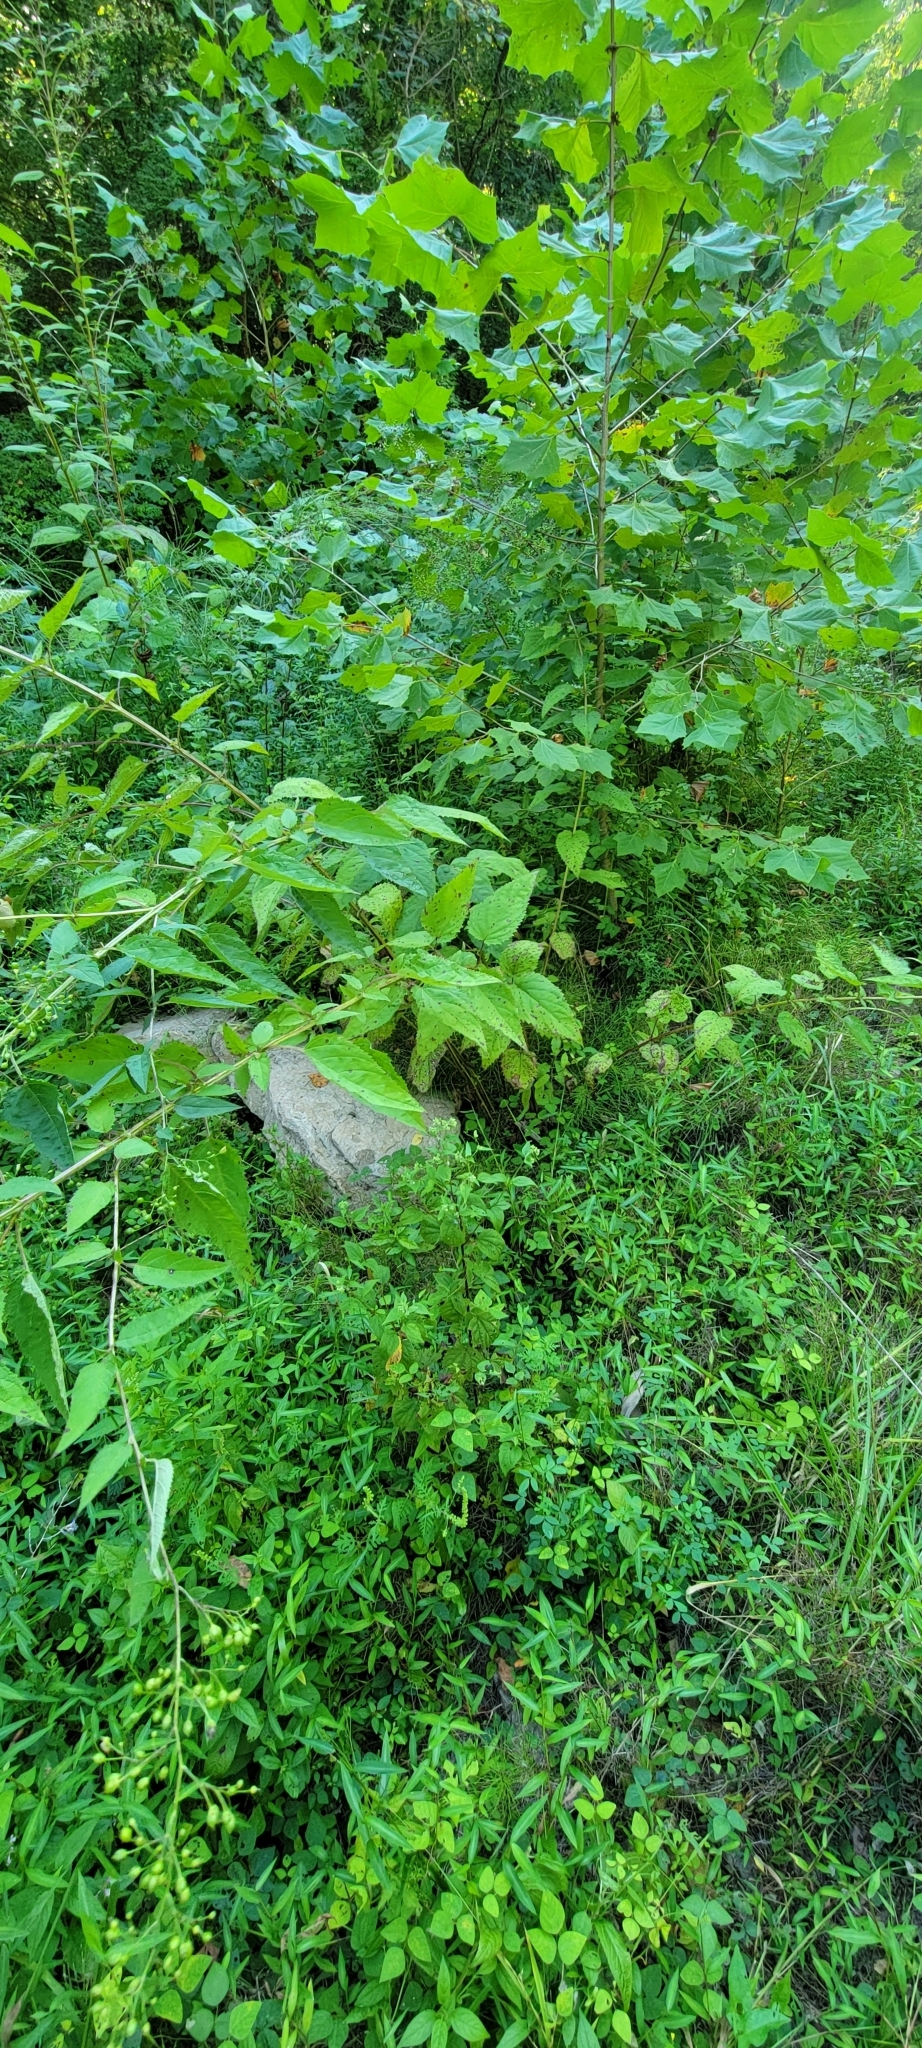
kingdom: Plantae
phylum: Tracheophyta
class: Magnoliopsida
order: Lamiales
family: Scrophulariaceae
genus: Scrophularia
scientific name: Scrophularia marilandica
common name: Eastern figwort
